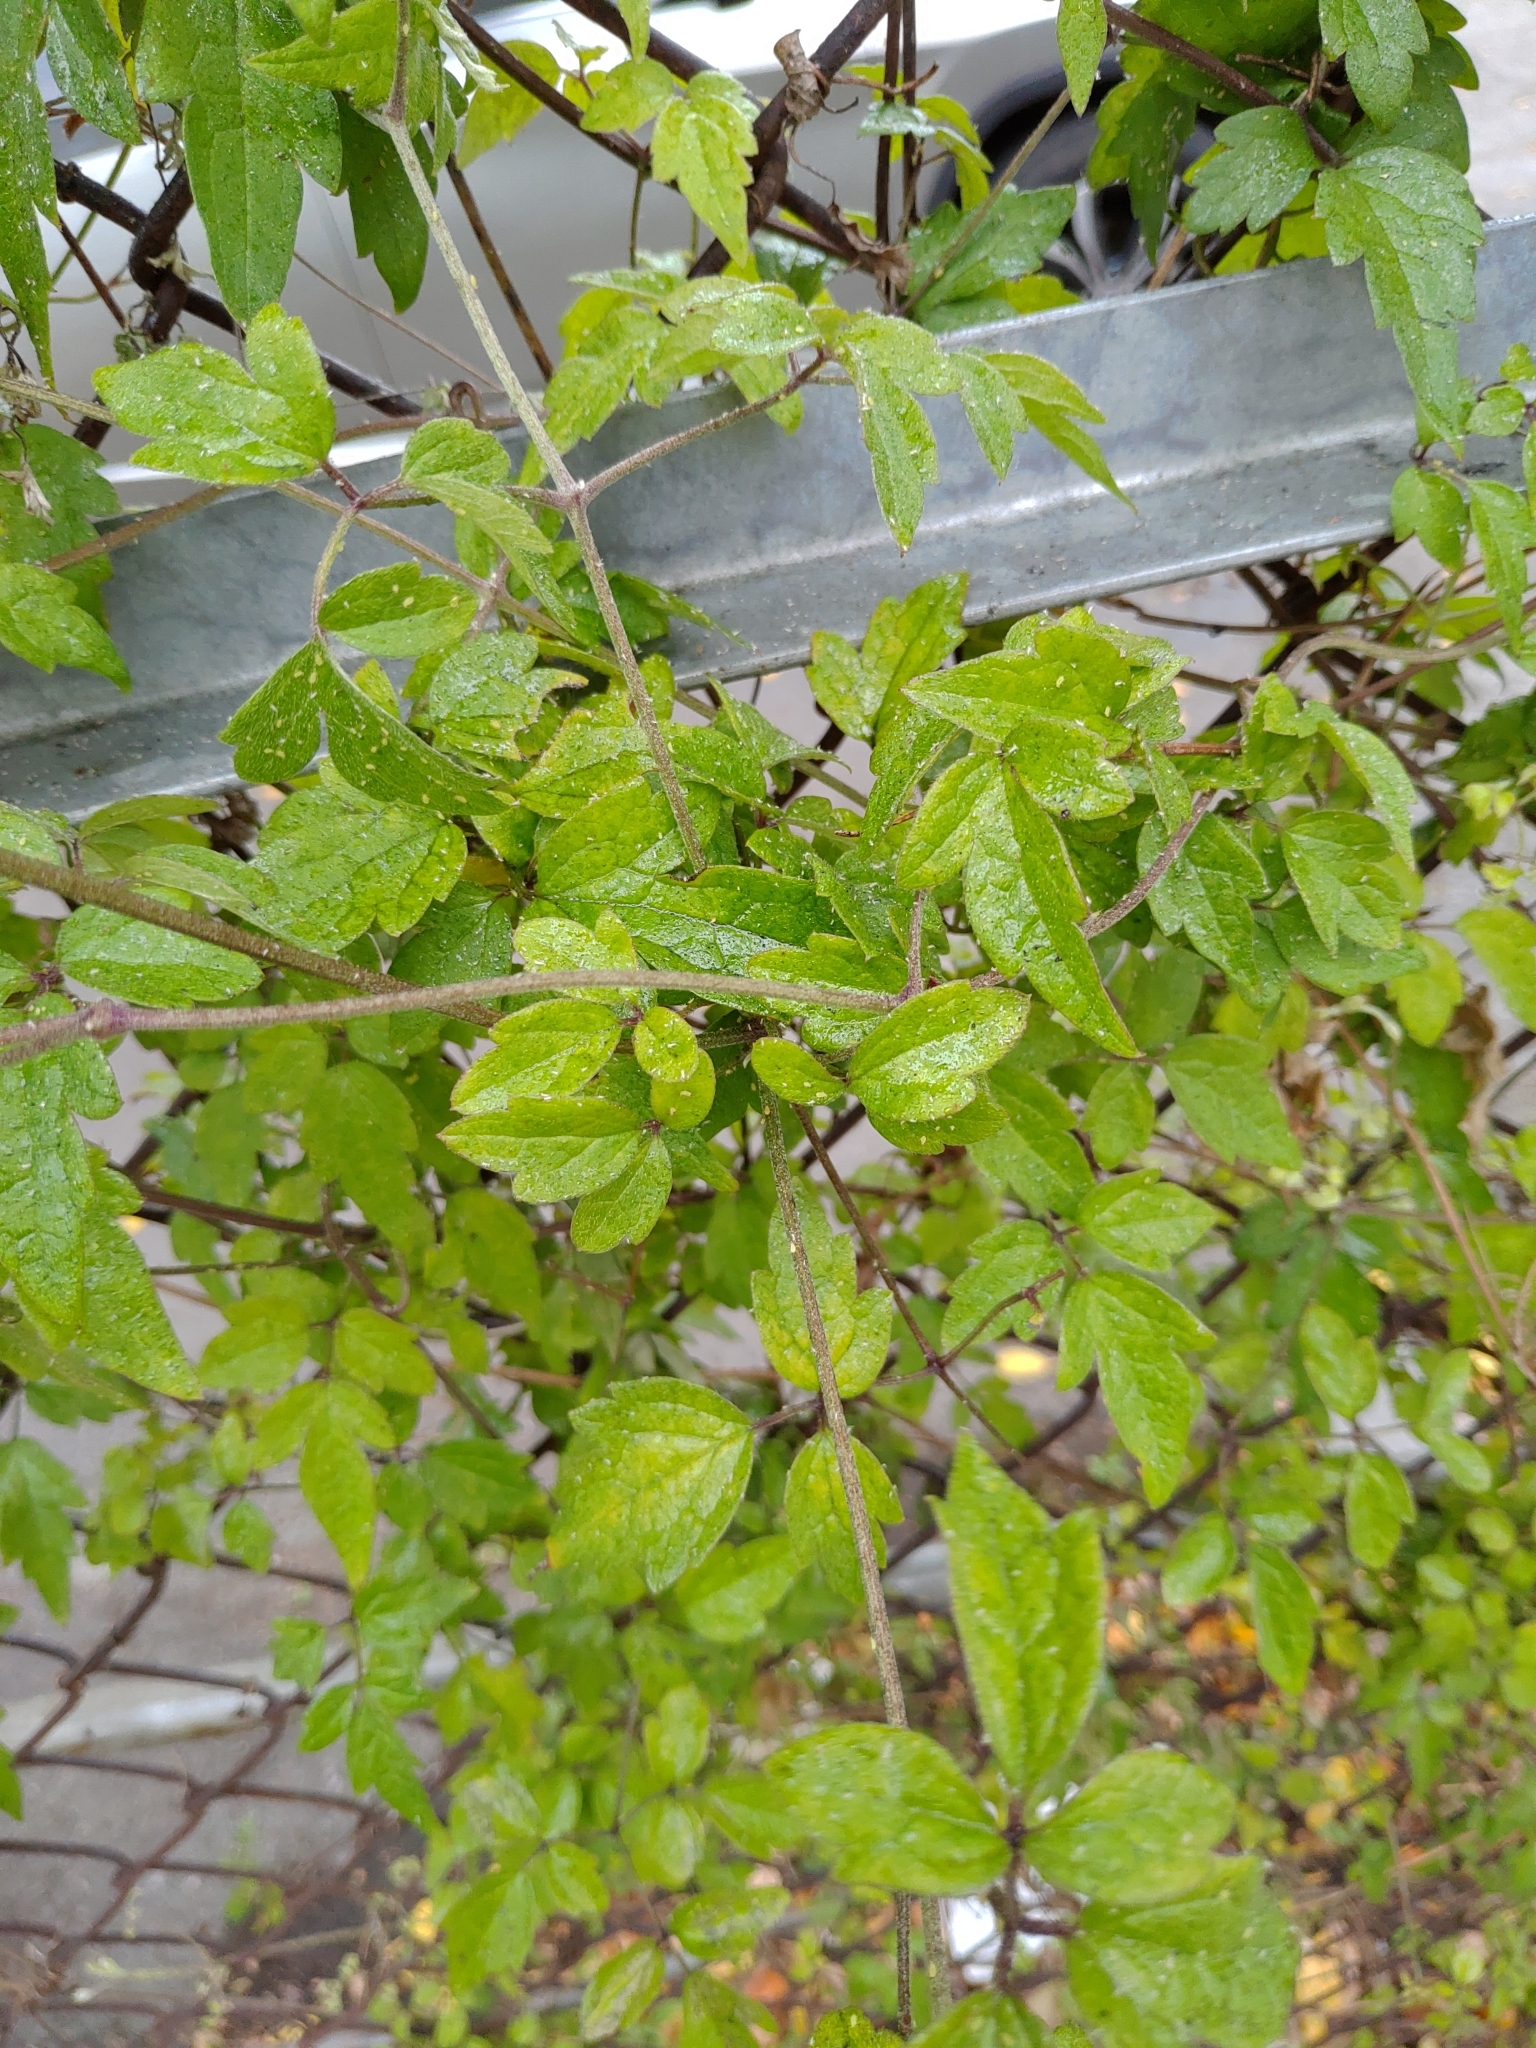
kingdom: Plantae
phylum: Tracheophyta
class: Magnoliopsida
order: Ranunculales
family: Ranunculaceae
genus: Clematis
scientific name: Clematis grata
